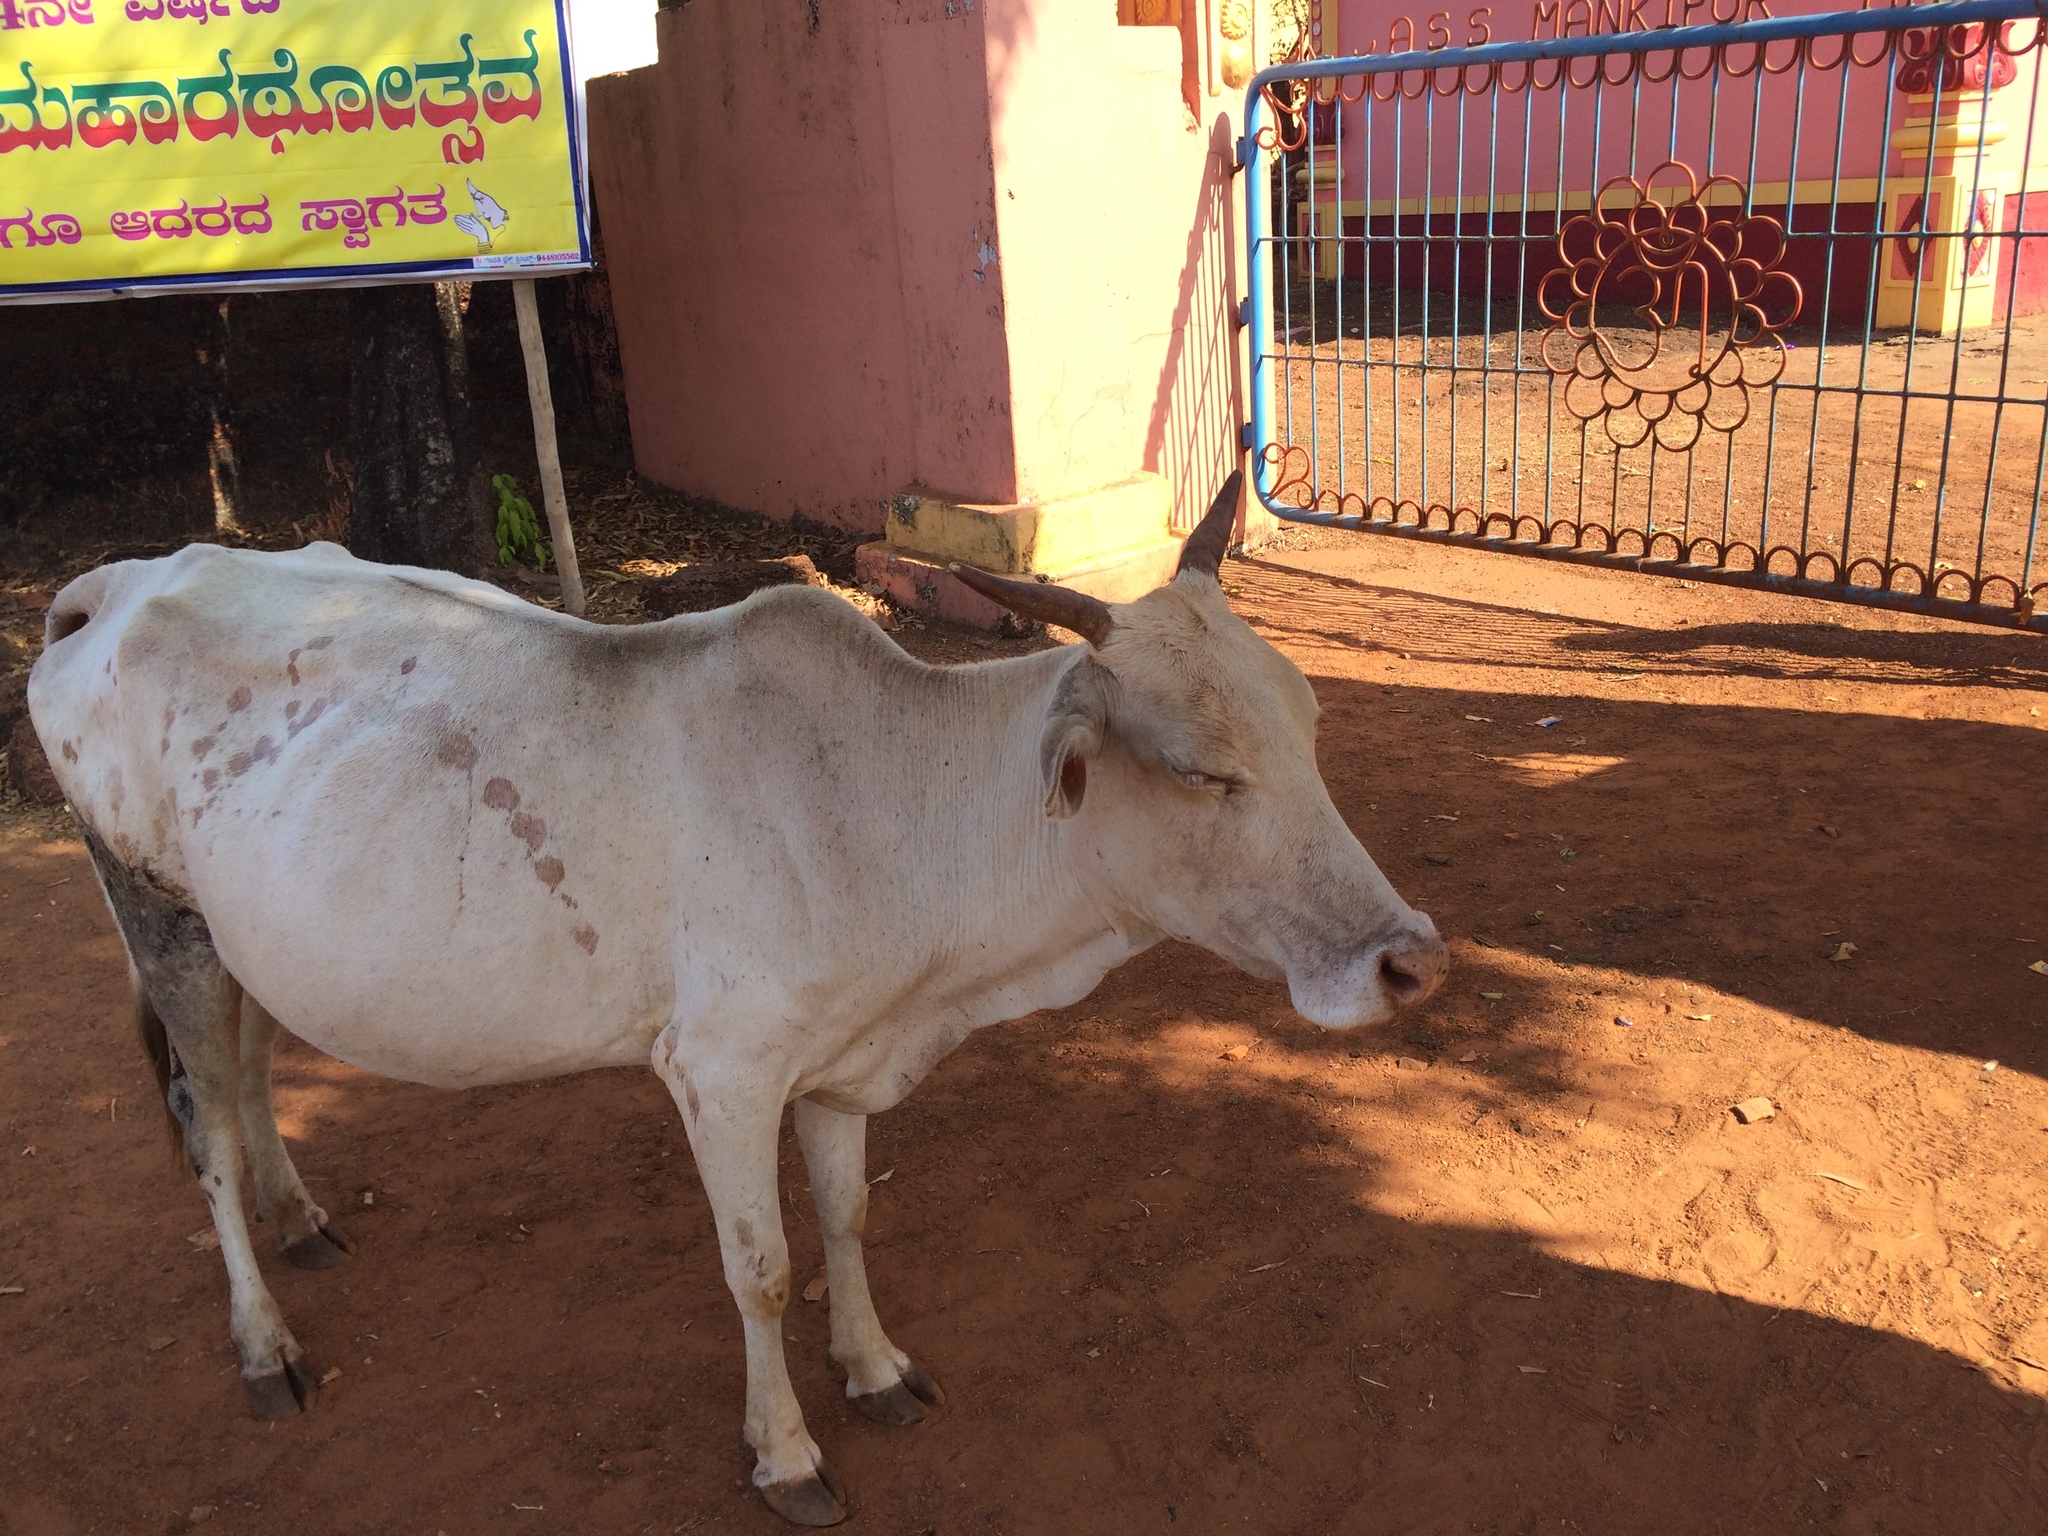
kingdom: Animalia
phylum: Chordata
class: Mammalia
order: Artiodactyla
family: Bovidae
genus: Bos
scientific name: Bos taurus
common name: Domesticated cattle
